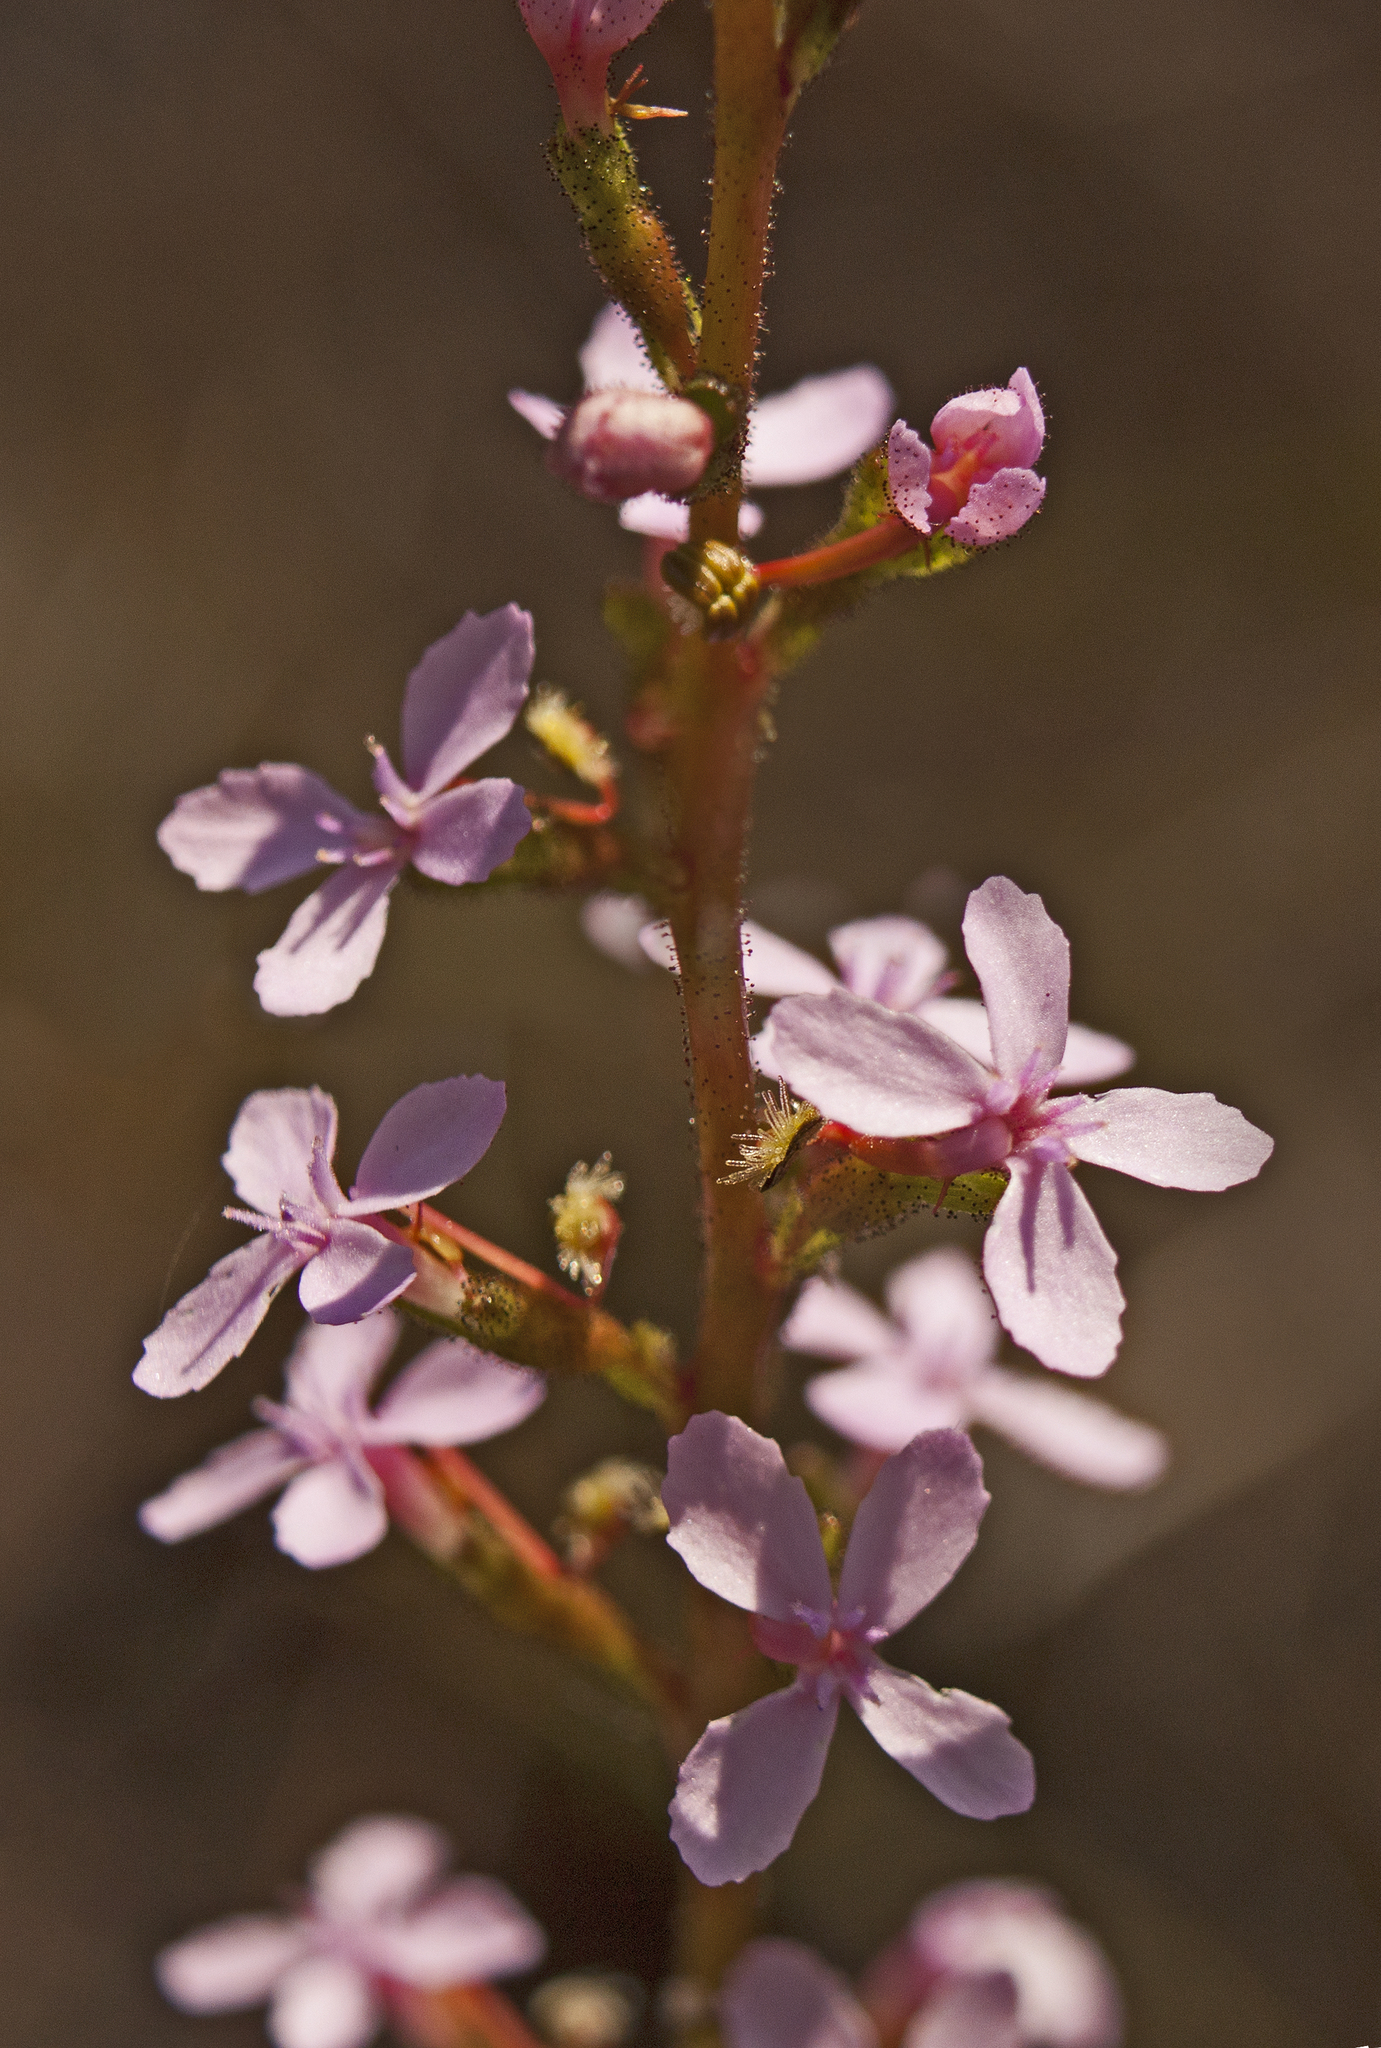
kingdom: Plantae
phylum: Tracheophyta
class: Magnoliopsida
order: Asterales
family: Stylidiaceae
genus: Stylidium
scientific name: Stylidium graminifolium
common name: Grass triggerplant
